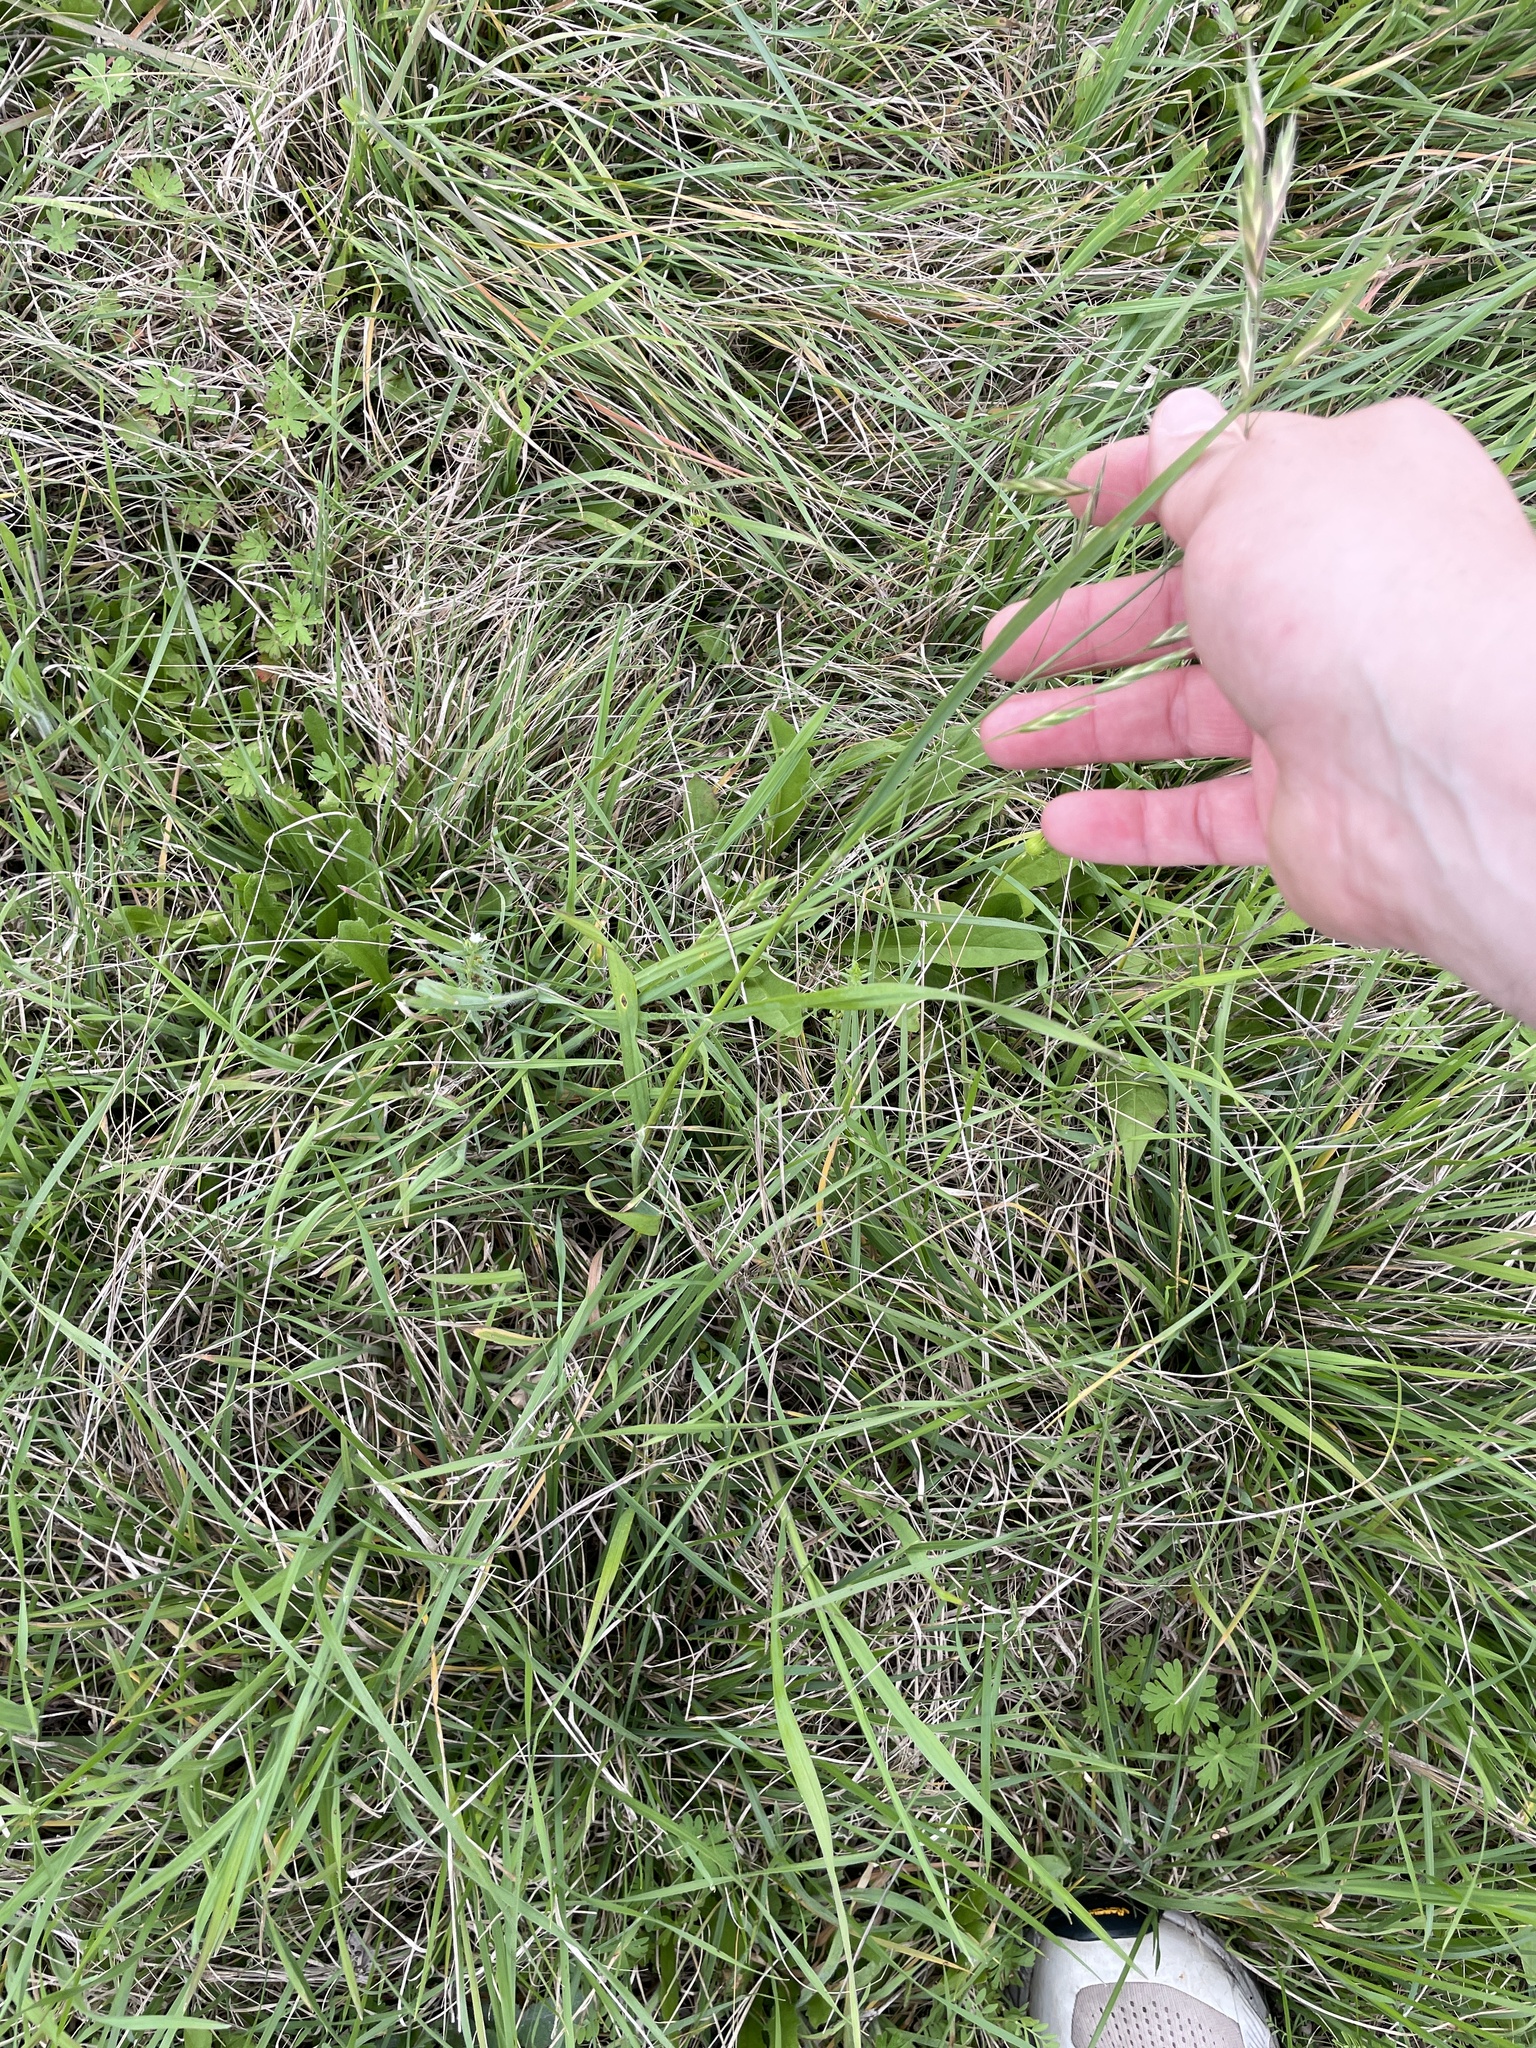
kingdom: Plantae
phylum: Tracheophyta
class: Liliopsida
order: Poales
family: Poaceae
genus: Bromus
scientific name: Bromus catharticus
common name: Rescuegrass
